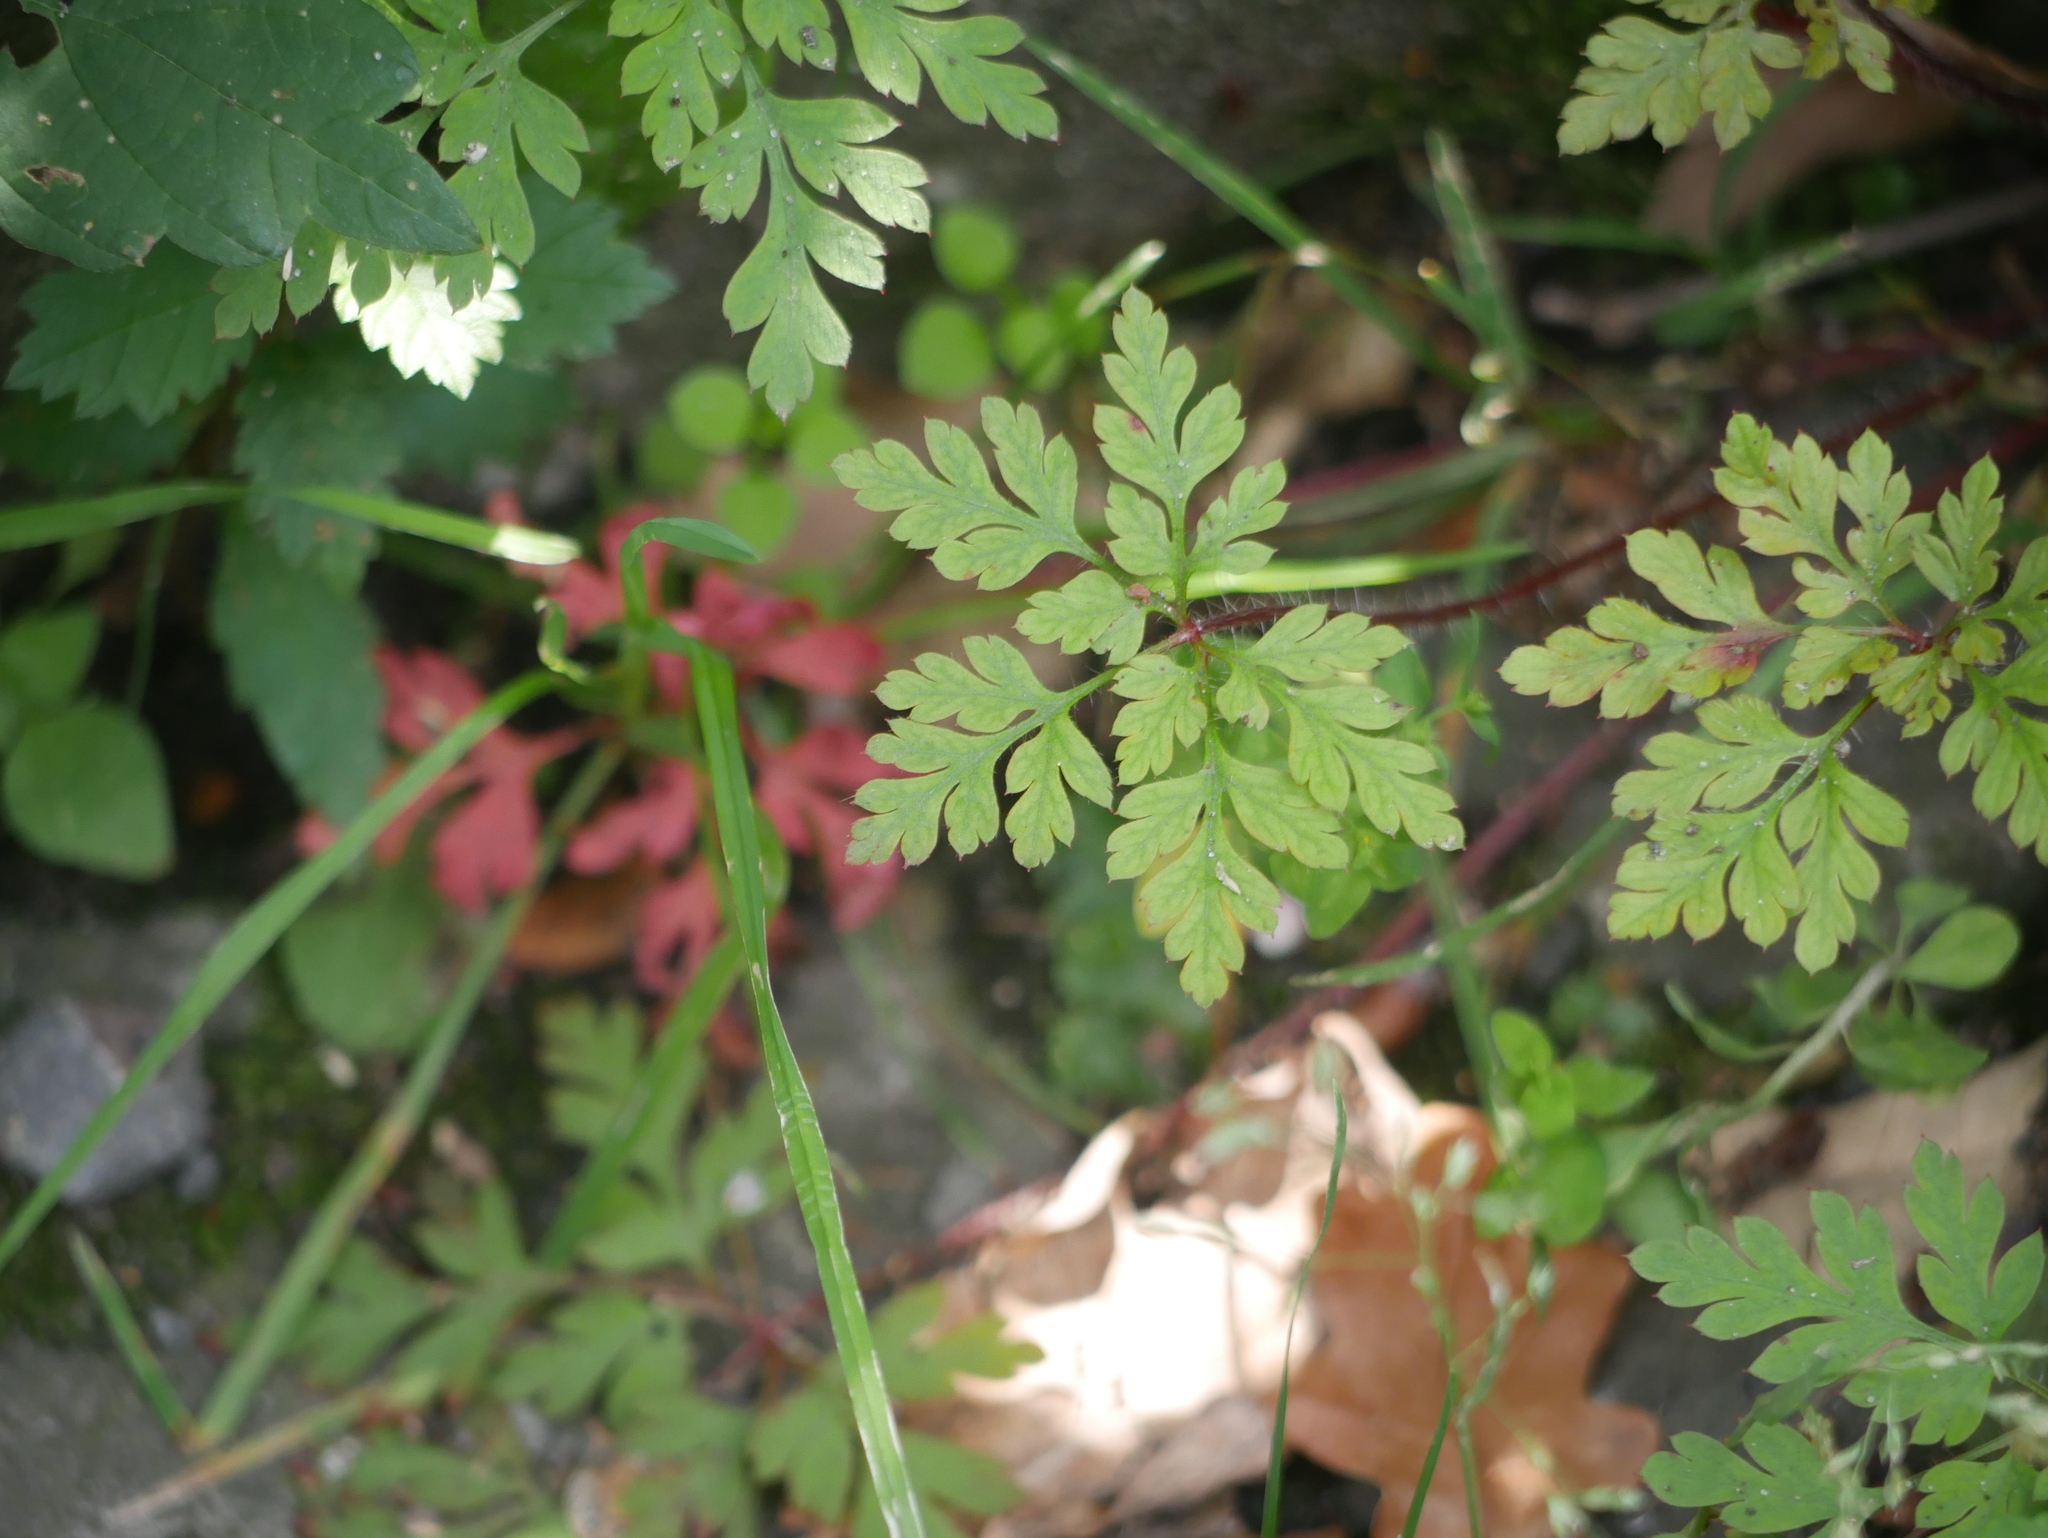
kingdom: Plantae
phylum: Tracheophyta
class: Magnoliopsida
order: Geraniales
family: Geraniaceae
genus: Geranium
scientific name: Geranium robertianum
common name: Herb-robert
